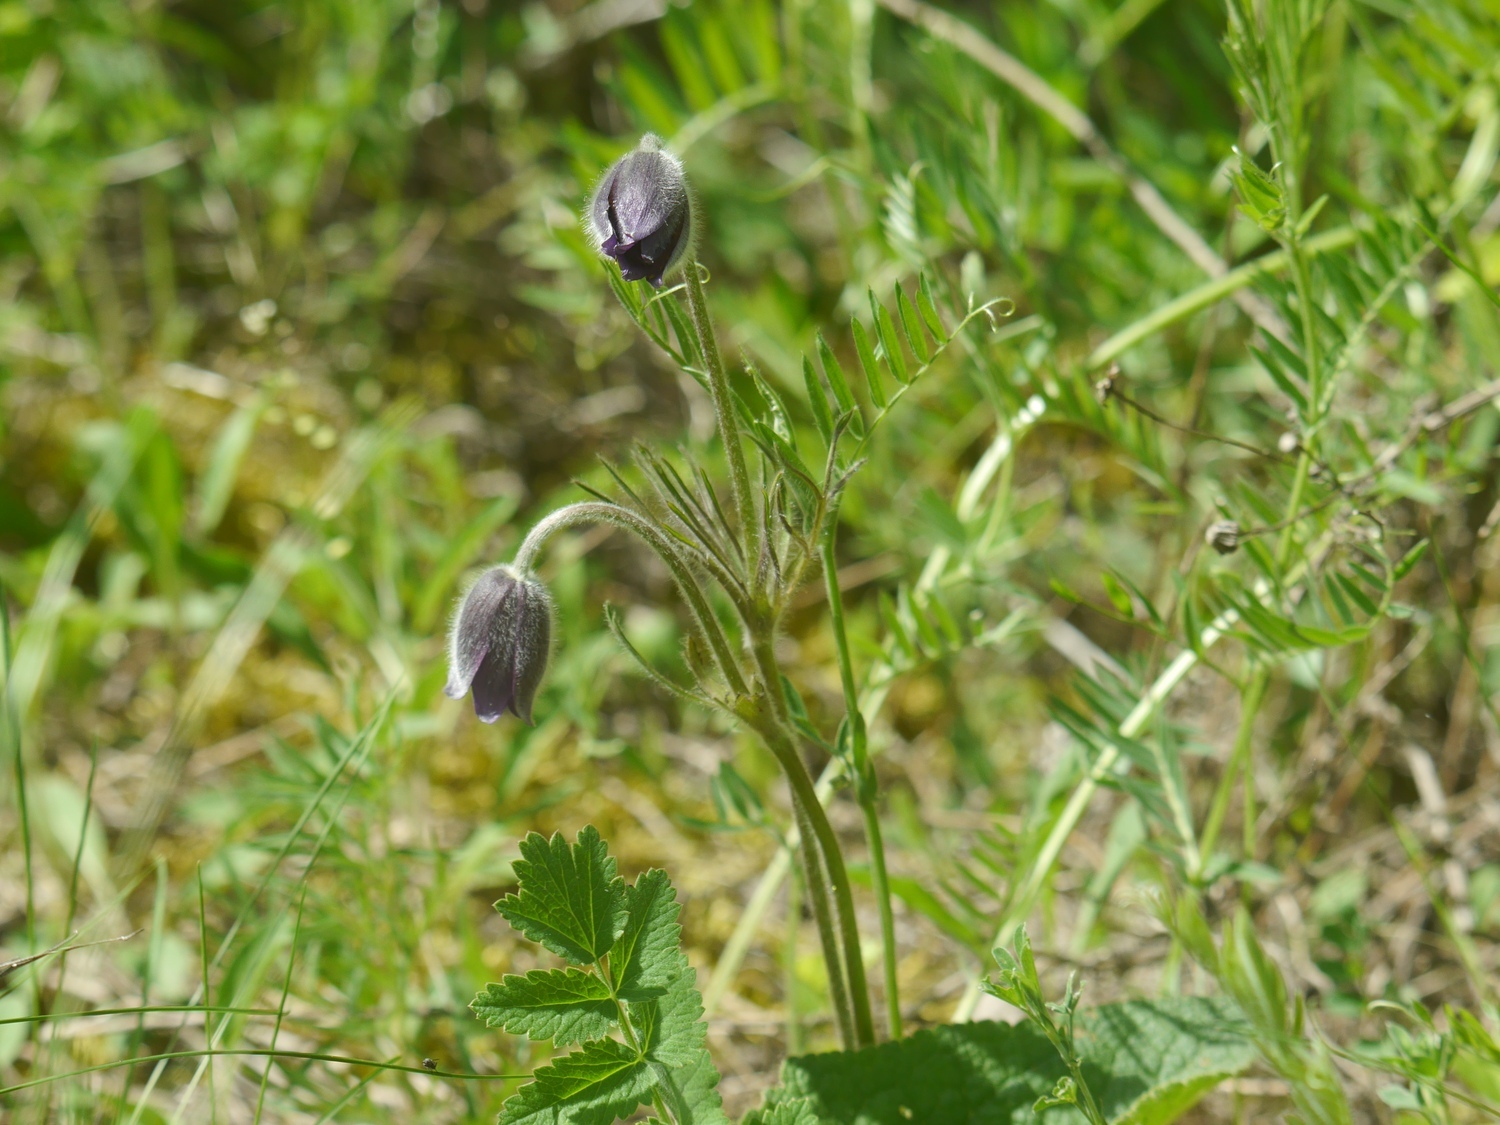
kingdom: Plantae
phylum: Tracheophyta
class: Magnoliopsida
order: Ranunculales
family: Ranunculaceae
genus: Pulsatilla
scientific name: Pulsatilla pratensis
